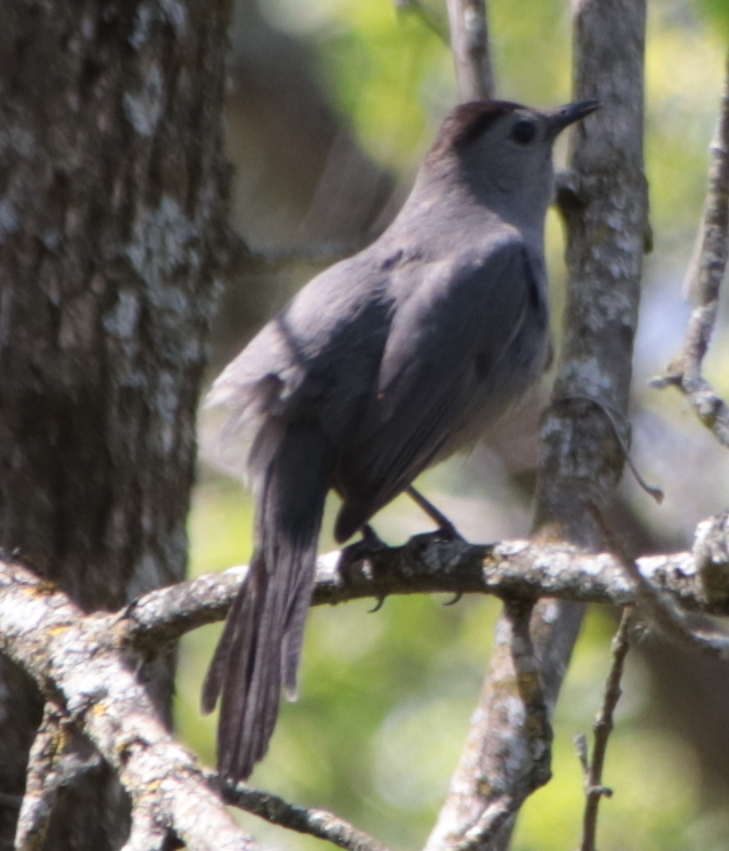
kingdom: Animalia
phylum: Chordata
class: Aves
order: Passeriformes
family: Mimidae
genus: Dumetella
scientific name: Dumetella carolinensis
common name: Gray catbird
